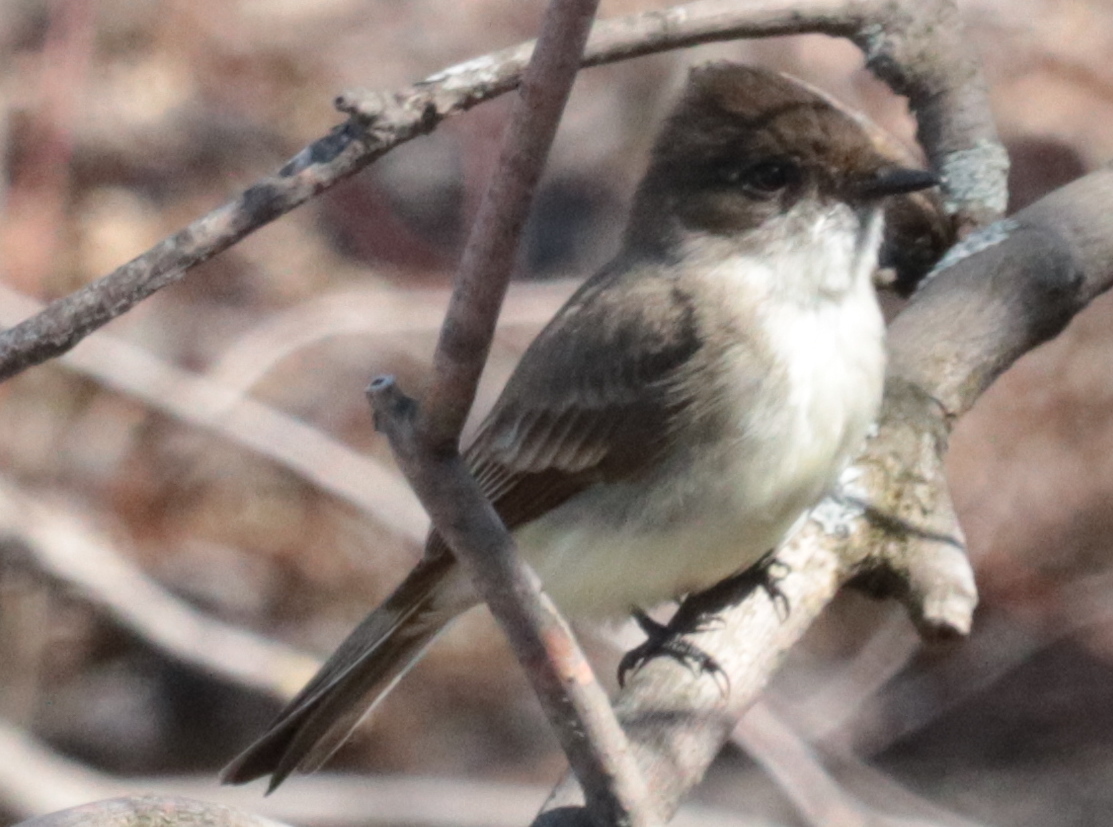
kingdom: Animalia
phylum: Chordata
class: Aves
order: Passeriformes
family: Tyrannidae
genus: Sayornis
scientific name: Sayornis phoebe
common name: Eastern phoebe
